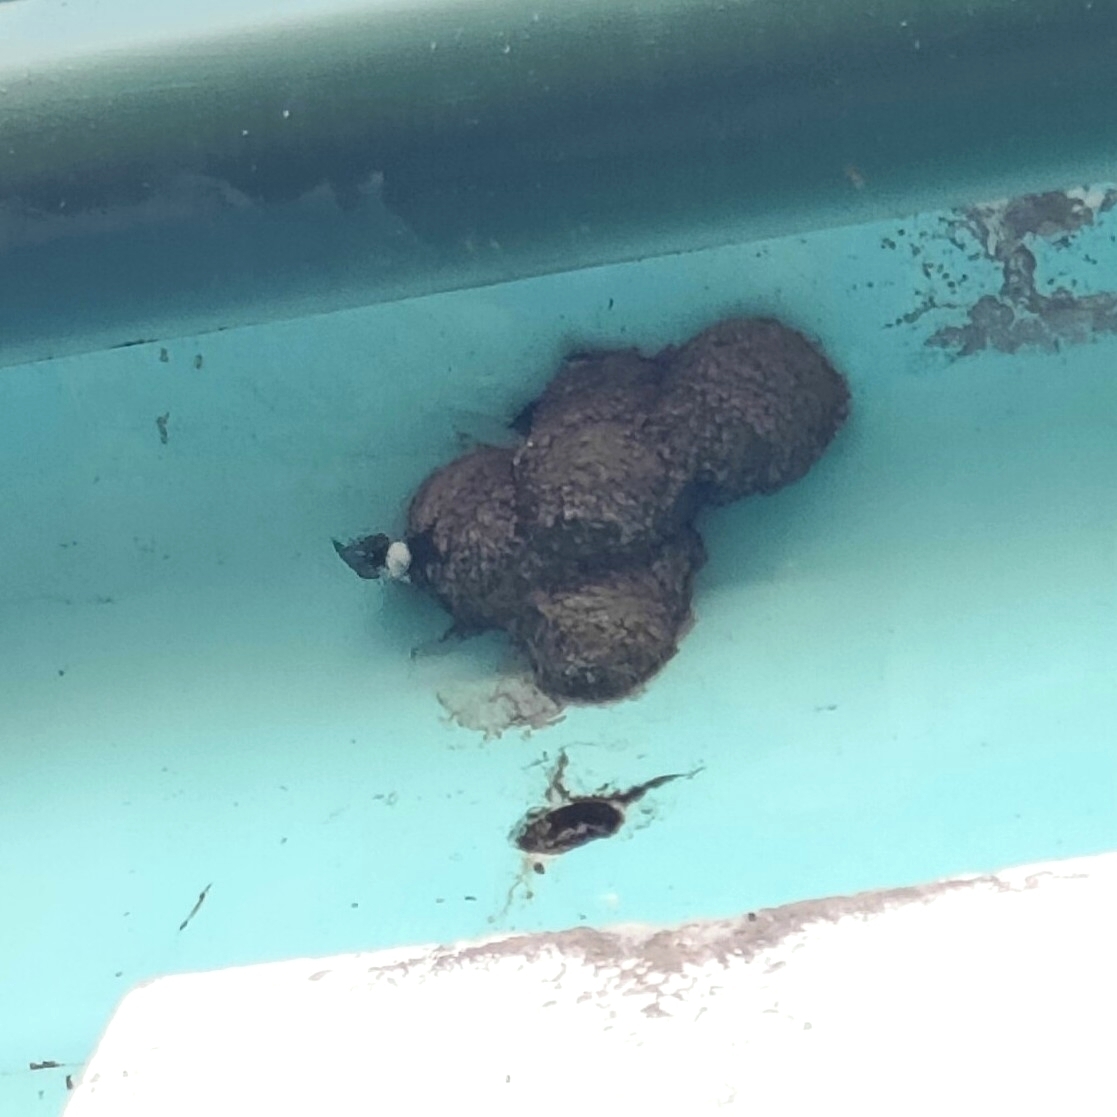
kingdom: Animalia
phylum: Chordata
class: Aves
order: Passeriformes
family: Hirundinidae
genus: Delichon
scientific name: Delichon urbicum
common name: Common house martin
